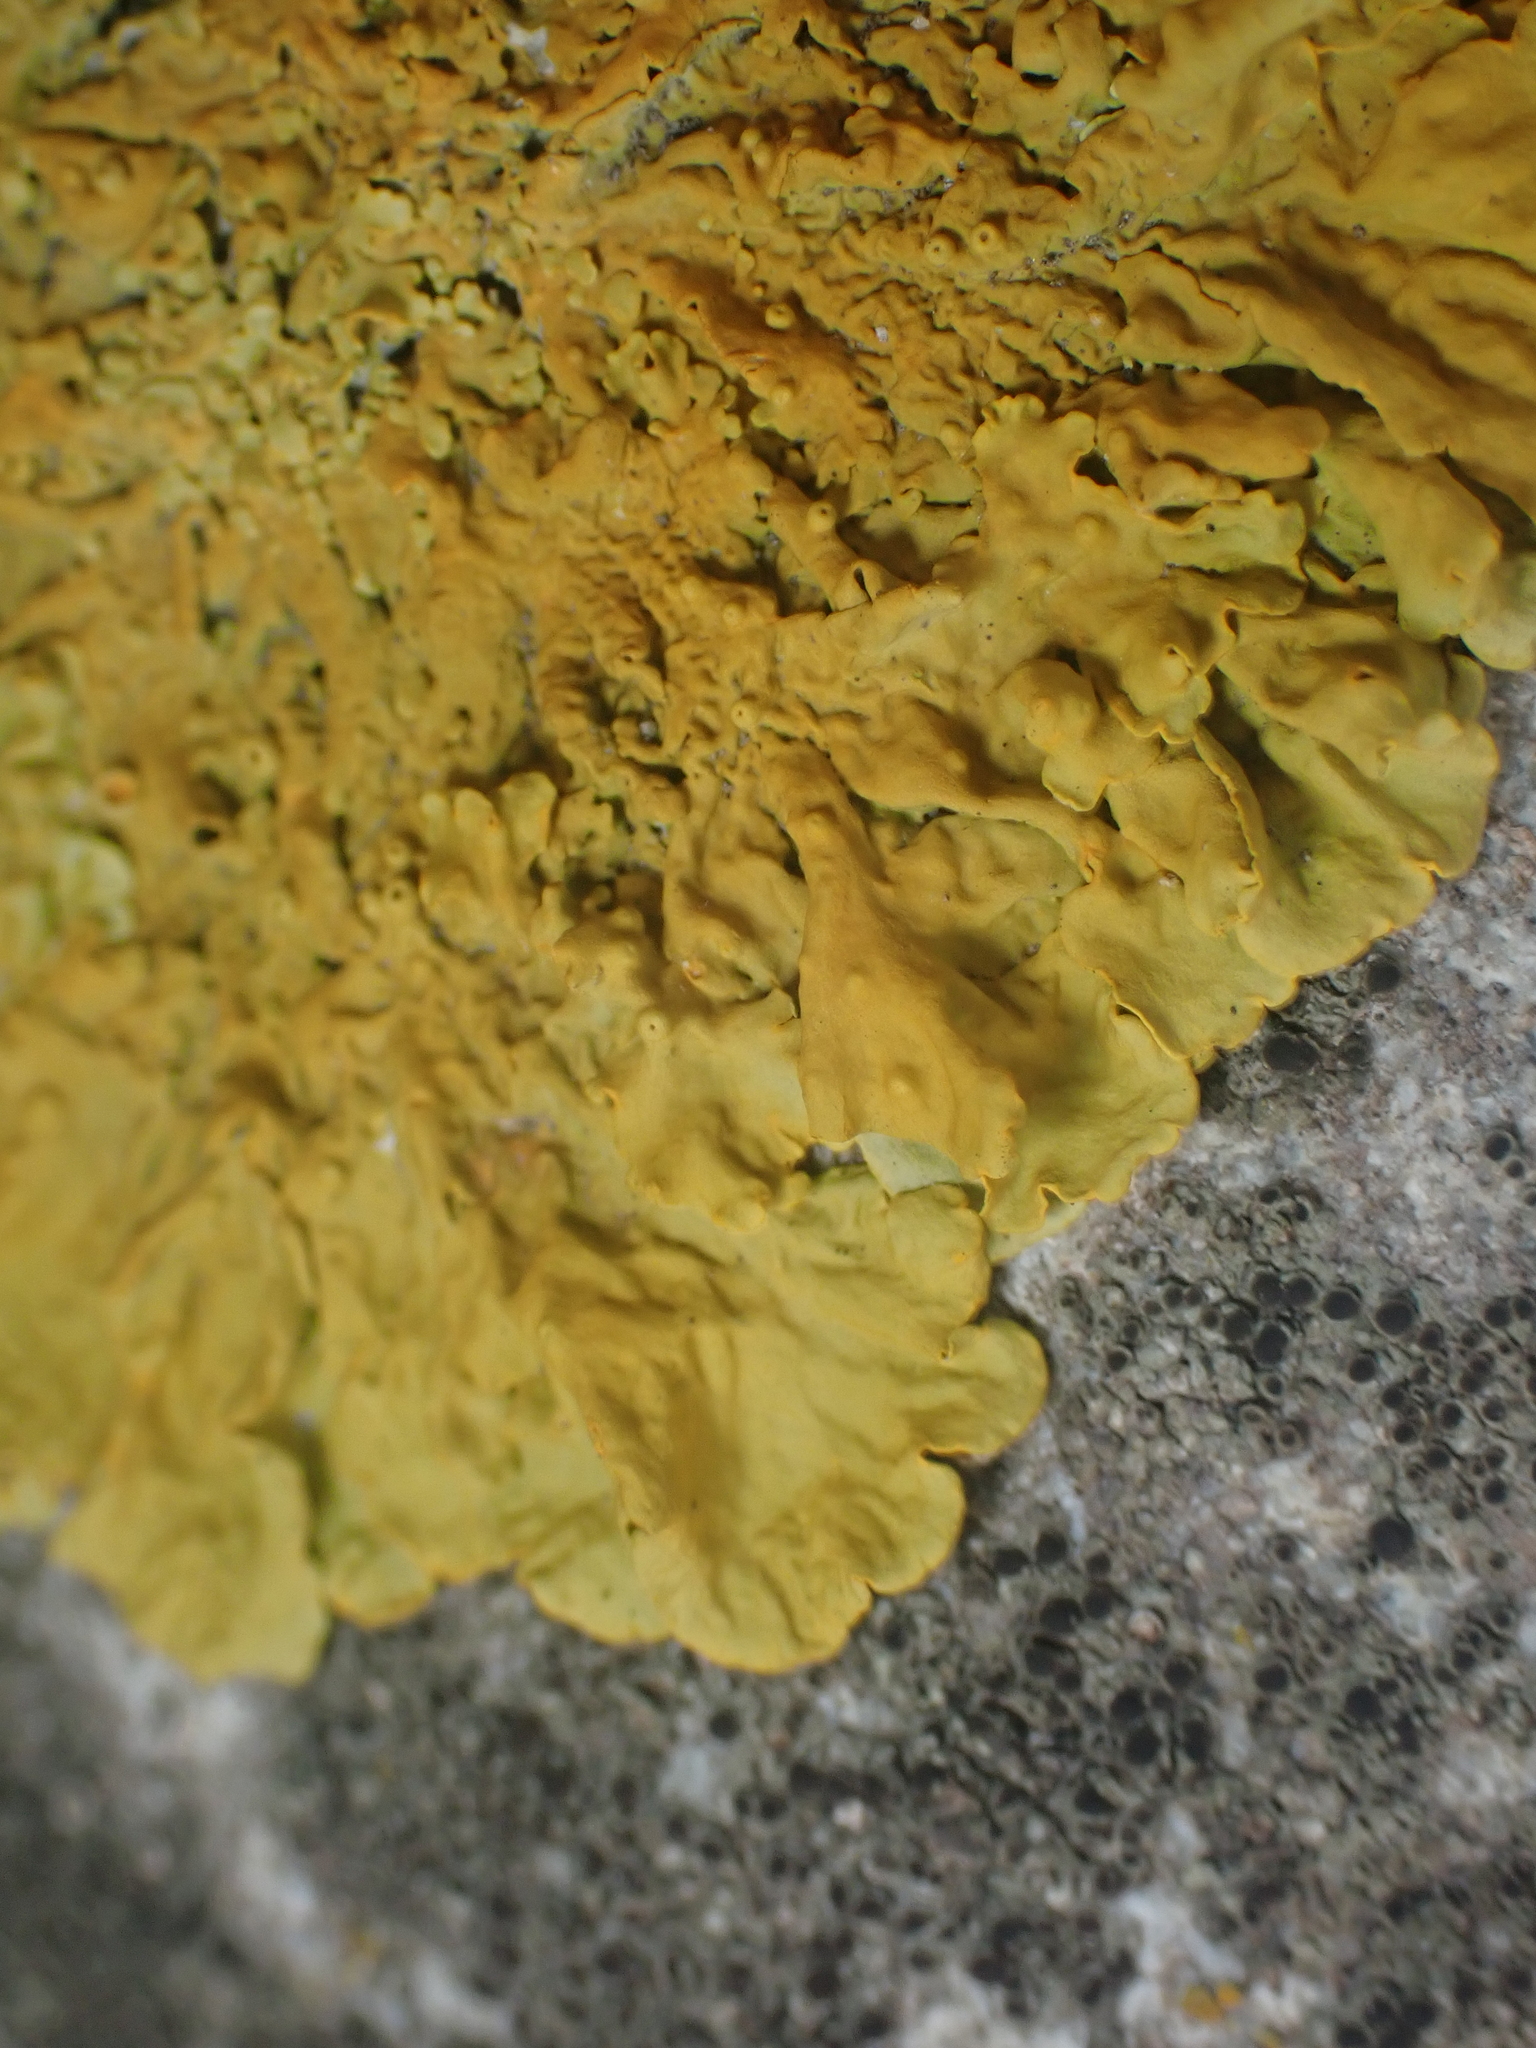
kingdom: Fungi
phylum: Ascomycota
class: Lecanoromycetes
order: Teloschistales
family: Teloschistaceae
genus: Xanthoria
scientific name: Xanthoria parietina
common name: Common orange lichen
